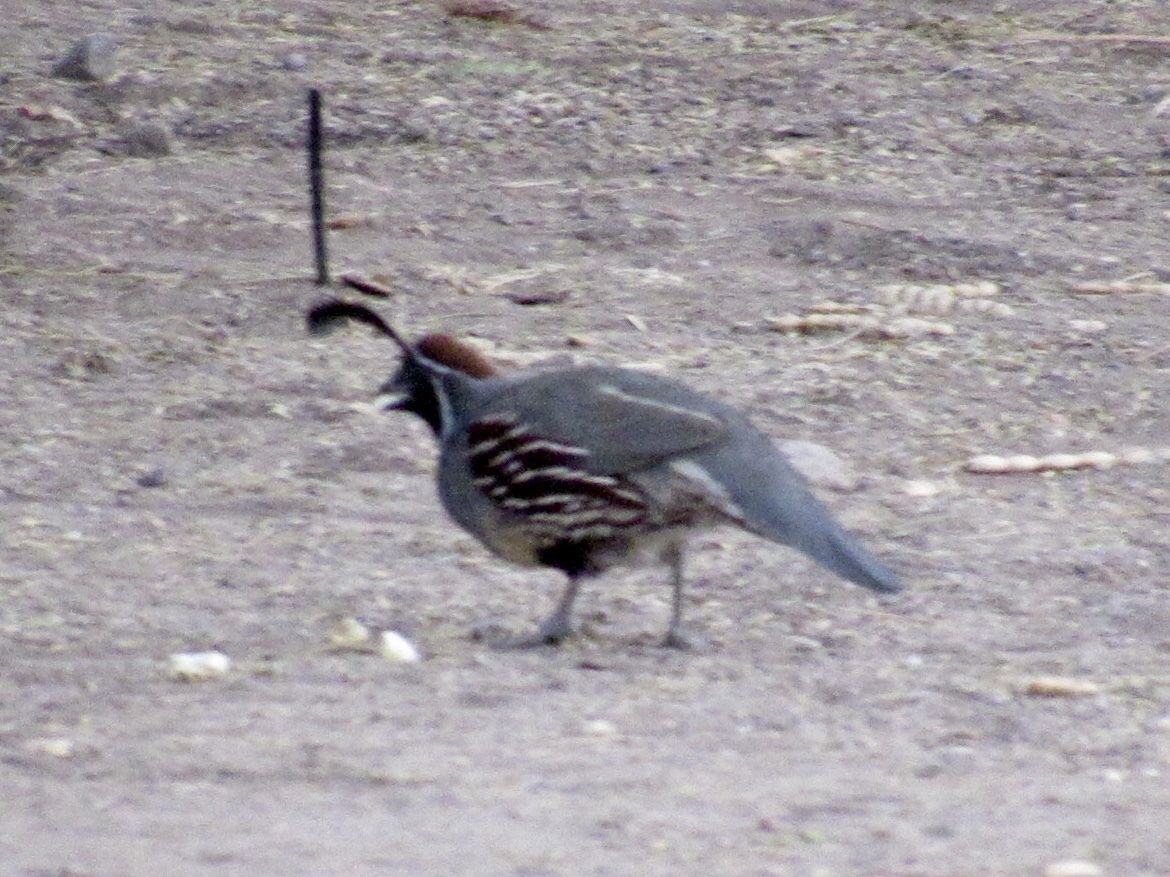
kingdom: Animalia
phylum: Chordata
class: Aves
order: Galliformes
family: Odontophoridae
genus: Callipepla
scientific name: Callipepla gambelii
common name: Gambel's quail
